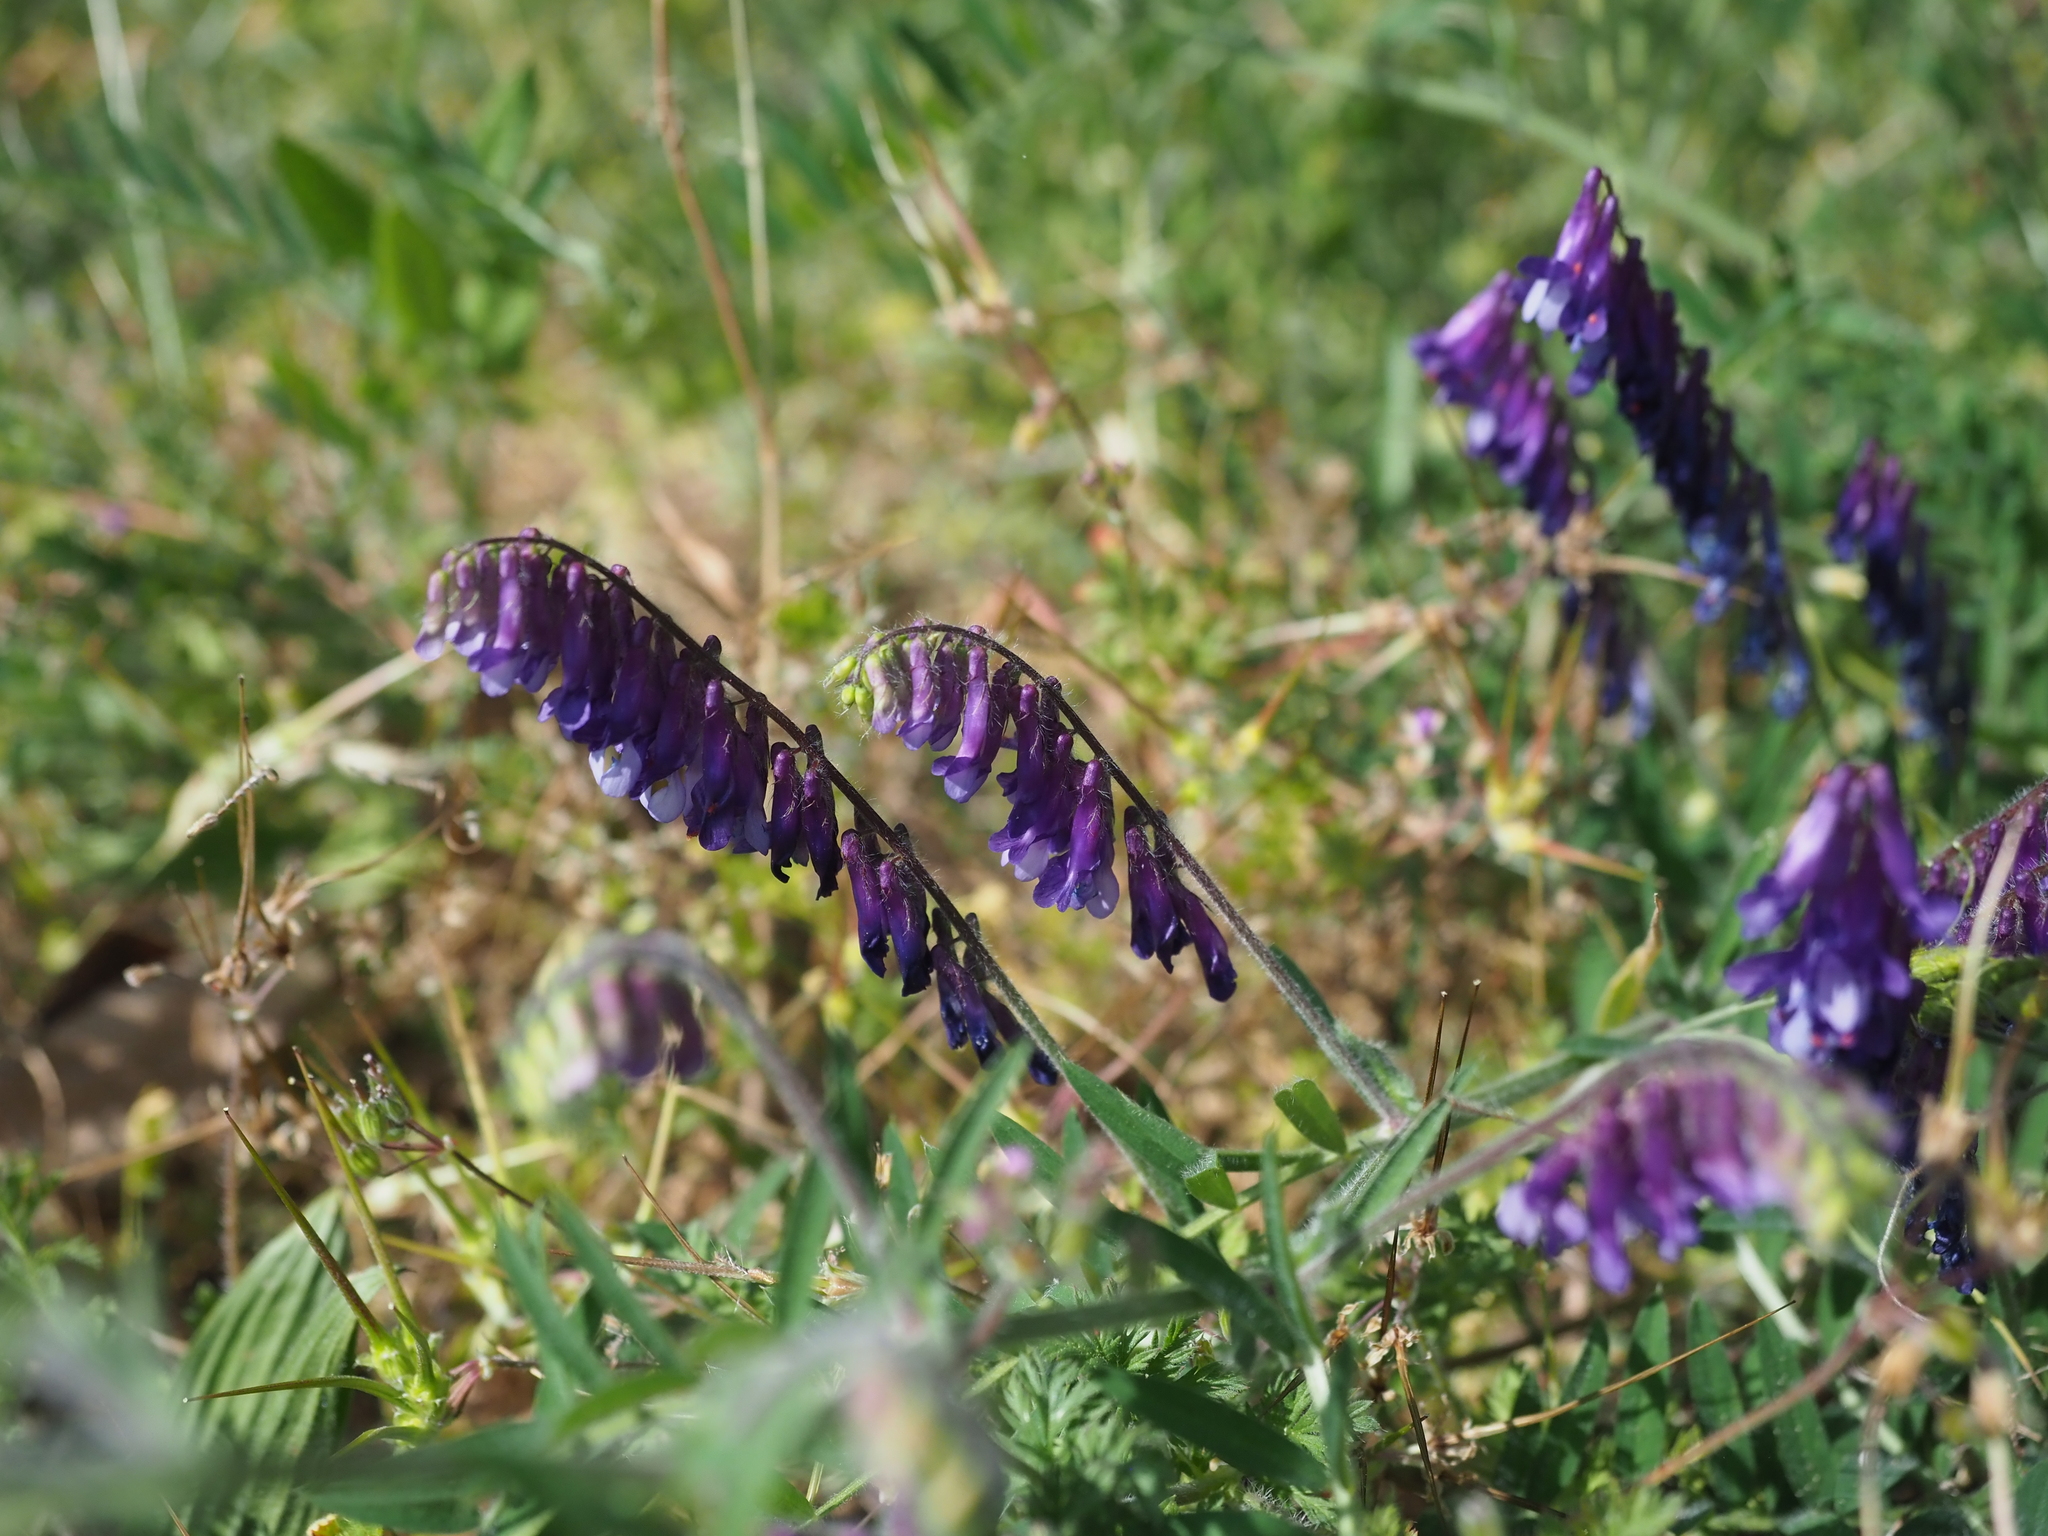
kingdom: Plantae
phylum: Tracheophyta
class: Magnoliopsida
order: Fabales
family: Fabaceae
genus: Vicia
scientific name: Vicia villosa
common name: Fodder vetch
